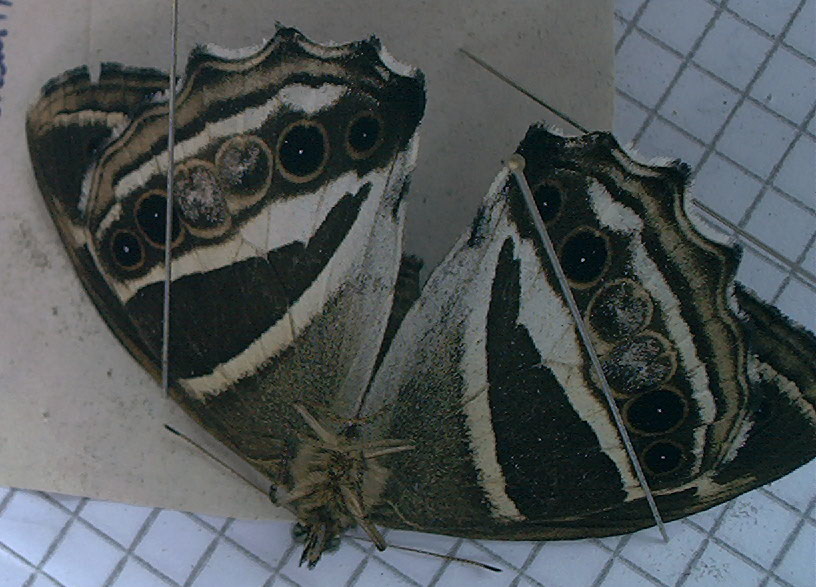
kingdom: Animalia
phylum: Arthropoda
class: Insecta
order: Lepidoptera
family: Nymphalidae
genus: Parataygetis
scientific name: Parataygetis albinotata
